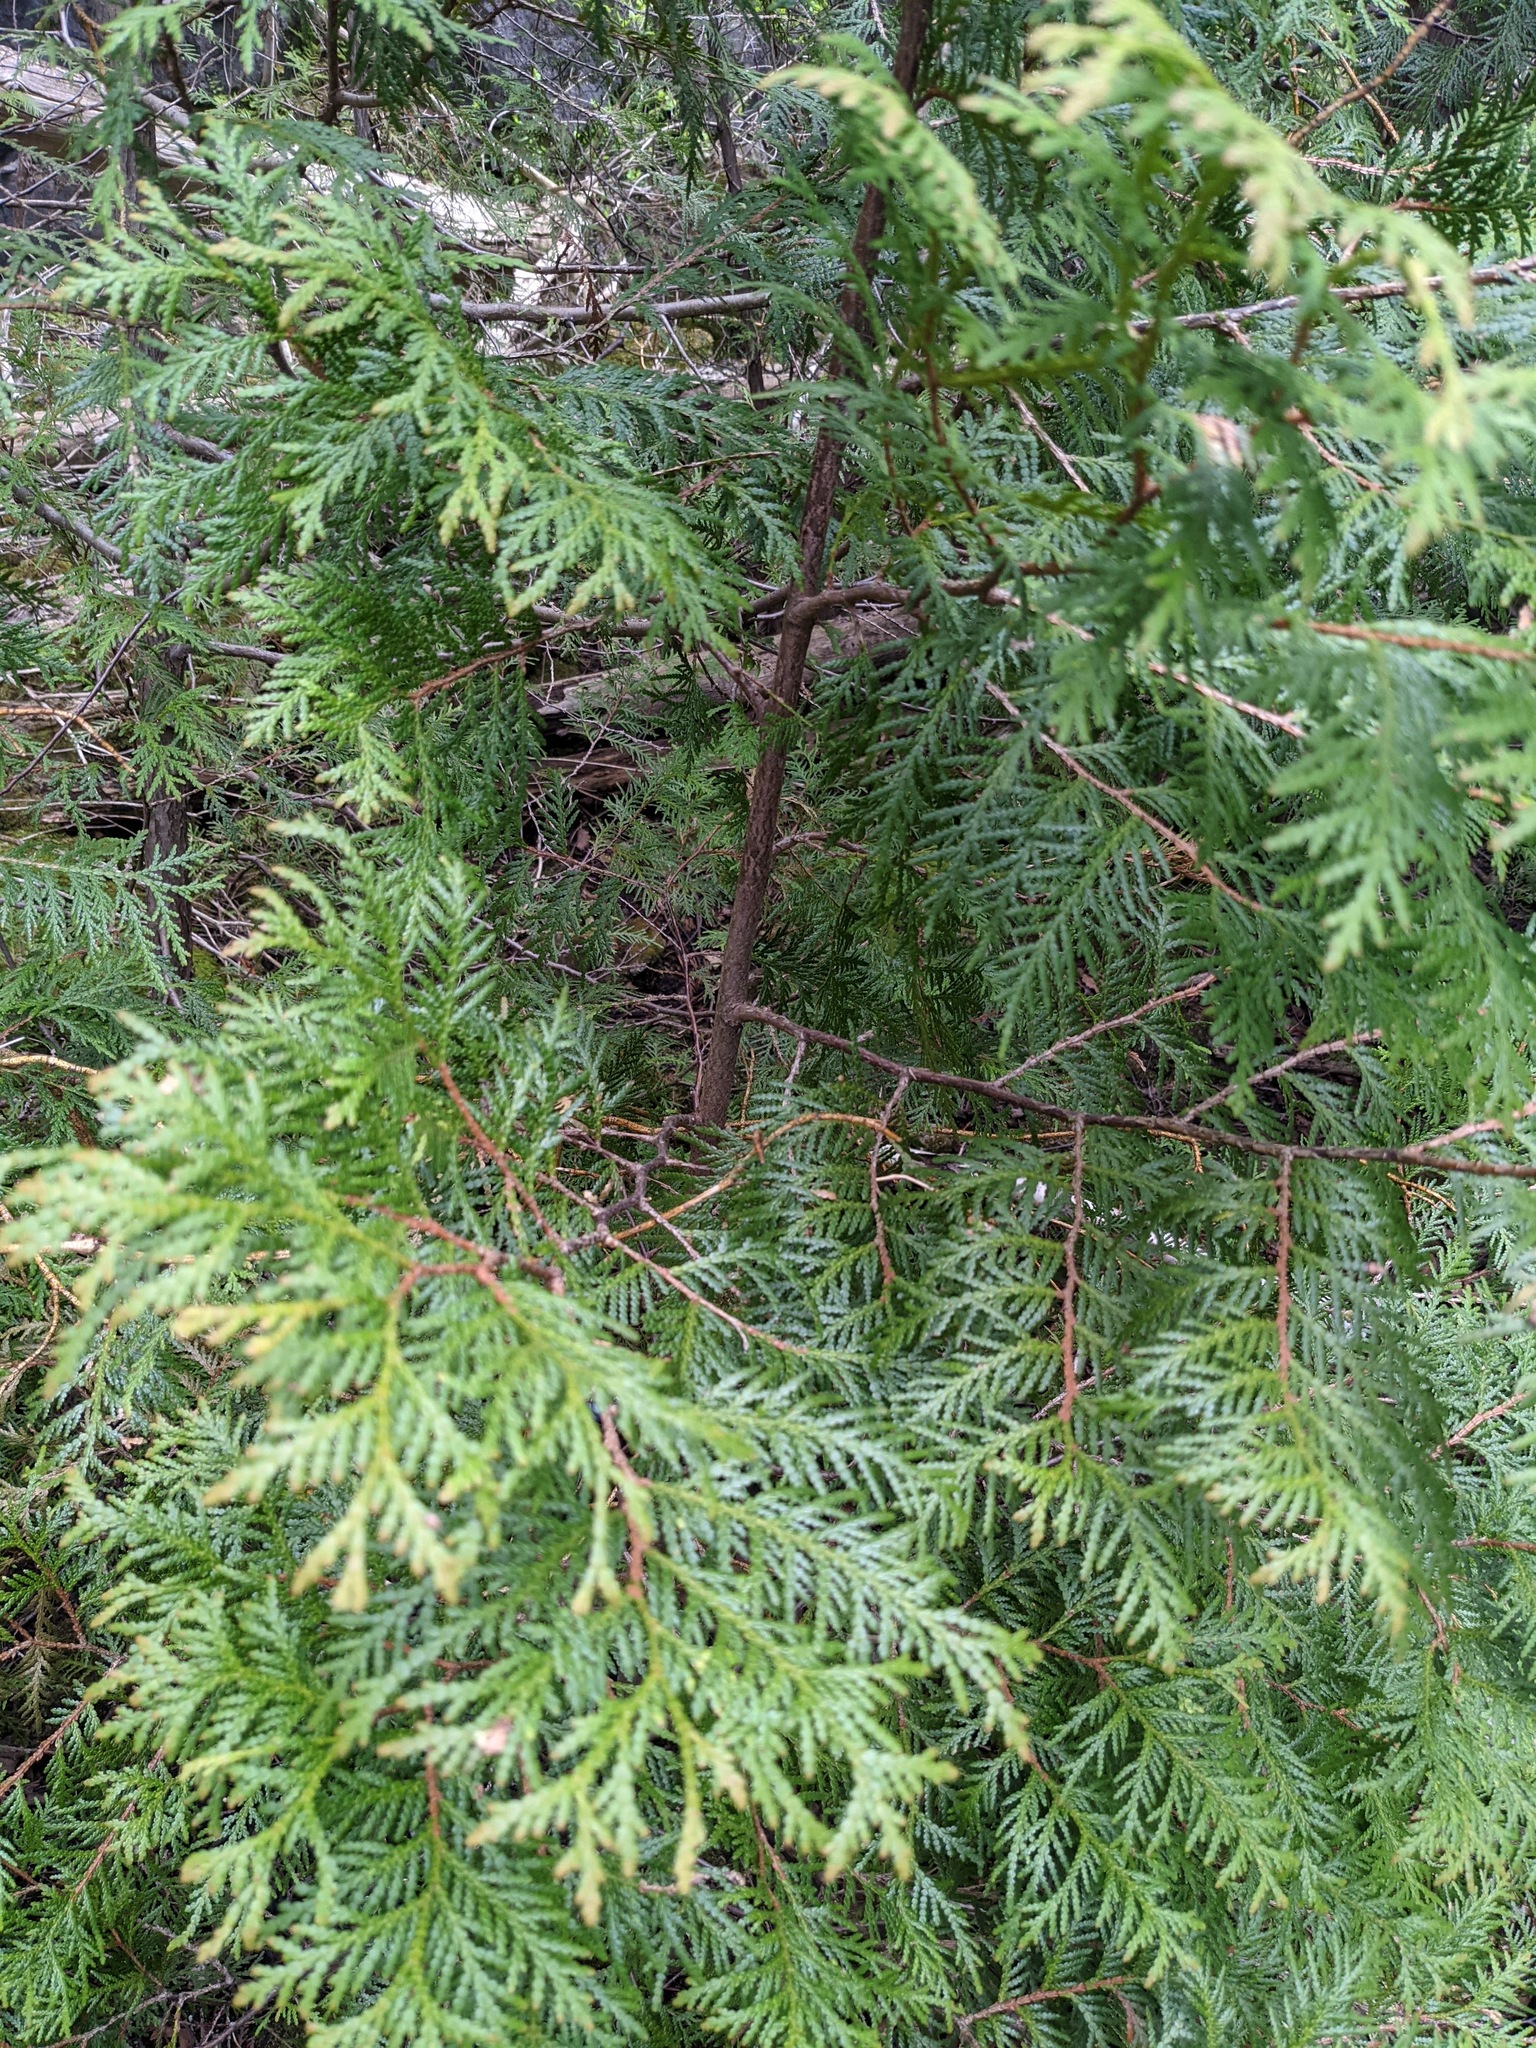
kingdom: Plantae
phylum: Tracheophyta
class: Pinopsida
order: Pinales
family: Cupressaceae
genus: Thuja
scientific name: Thuja occidentalis
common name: Northern white-cedar
